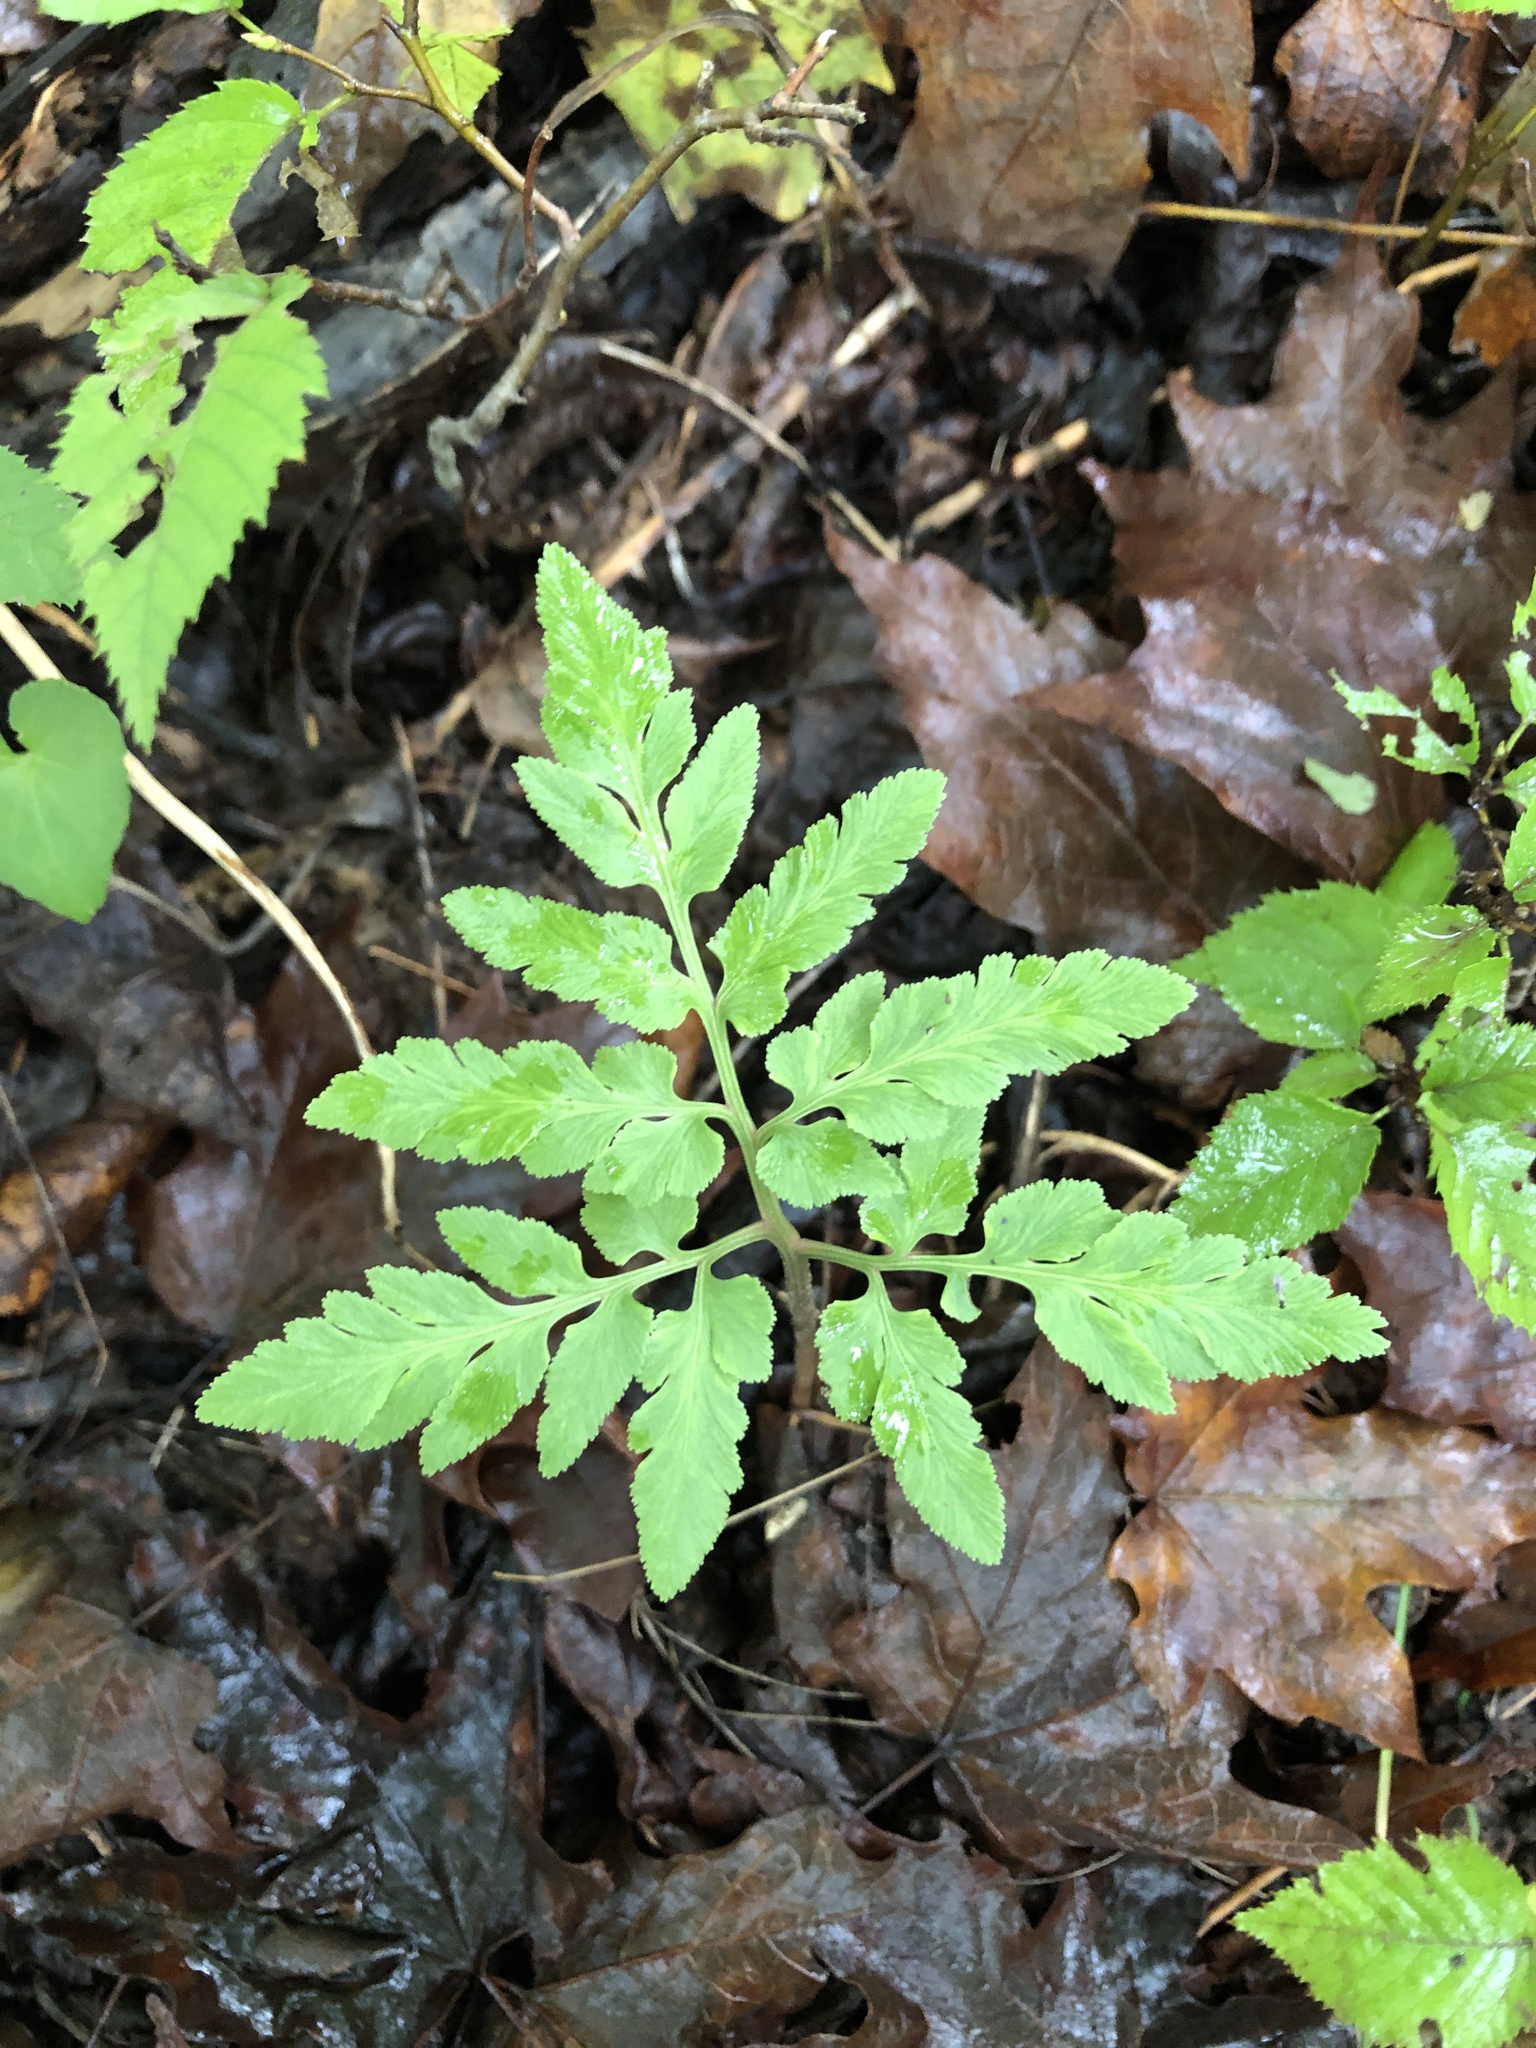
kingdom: Plantae
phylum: Tracheophyta
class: Polypodiopsida
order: Ophioglossales
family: Ophioglossaceae
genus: Sceptridium
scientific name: Sceptridium dissectum
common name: Cut-leaved grapefern
